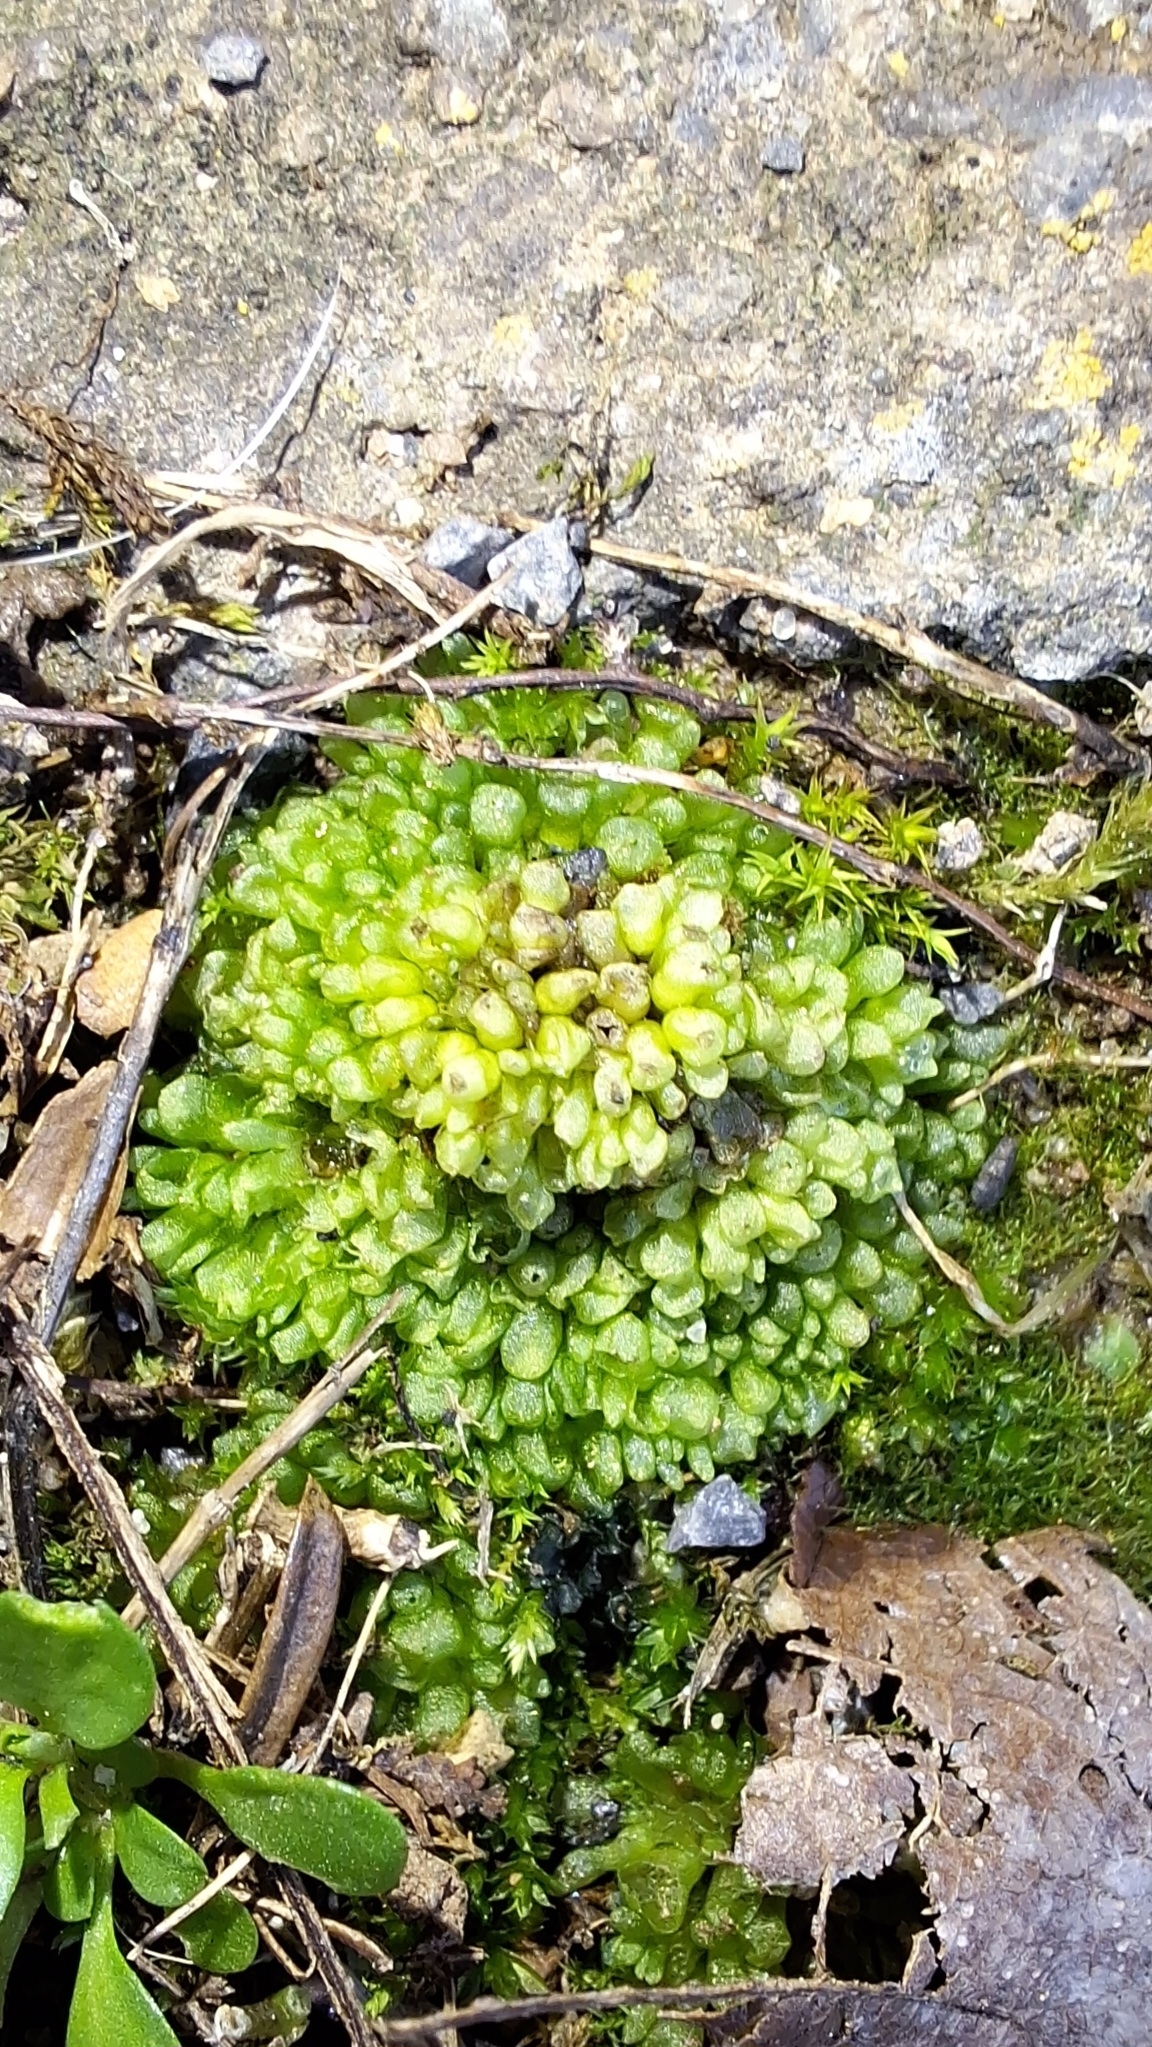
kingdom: Plantae
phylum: Marchantiophyta
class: Marchantiopsida
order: Sphaerocarpales
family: Sphaerocarpaceae
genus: Sphaerocarpos
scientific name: Sphaerocarpos texanus
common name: Texas balloonwort
